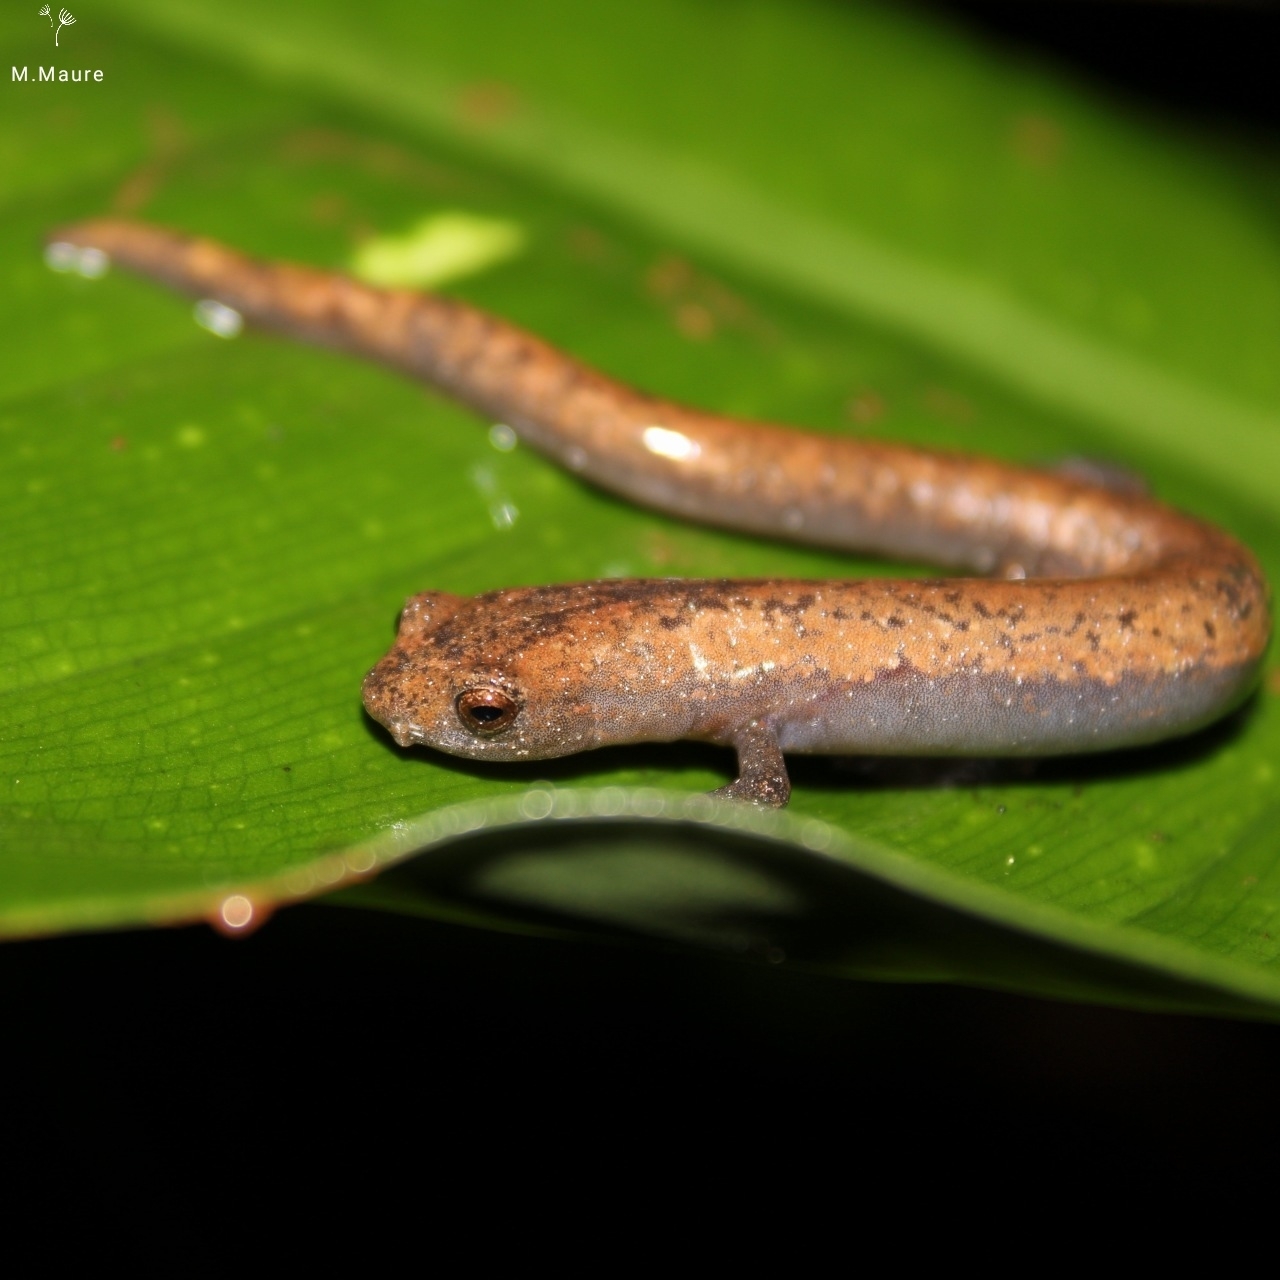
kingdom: Animalia
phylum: Chordata
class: Amphibia
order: Caudata
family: Plethodontidae
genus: Bolitoglossa
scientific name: Bolitoglossa lignicolor
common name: Camron mushroomtongue salamander
